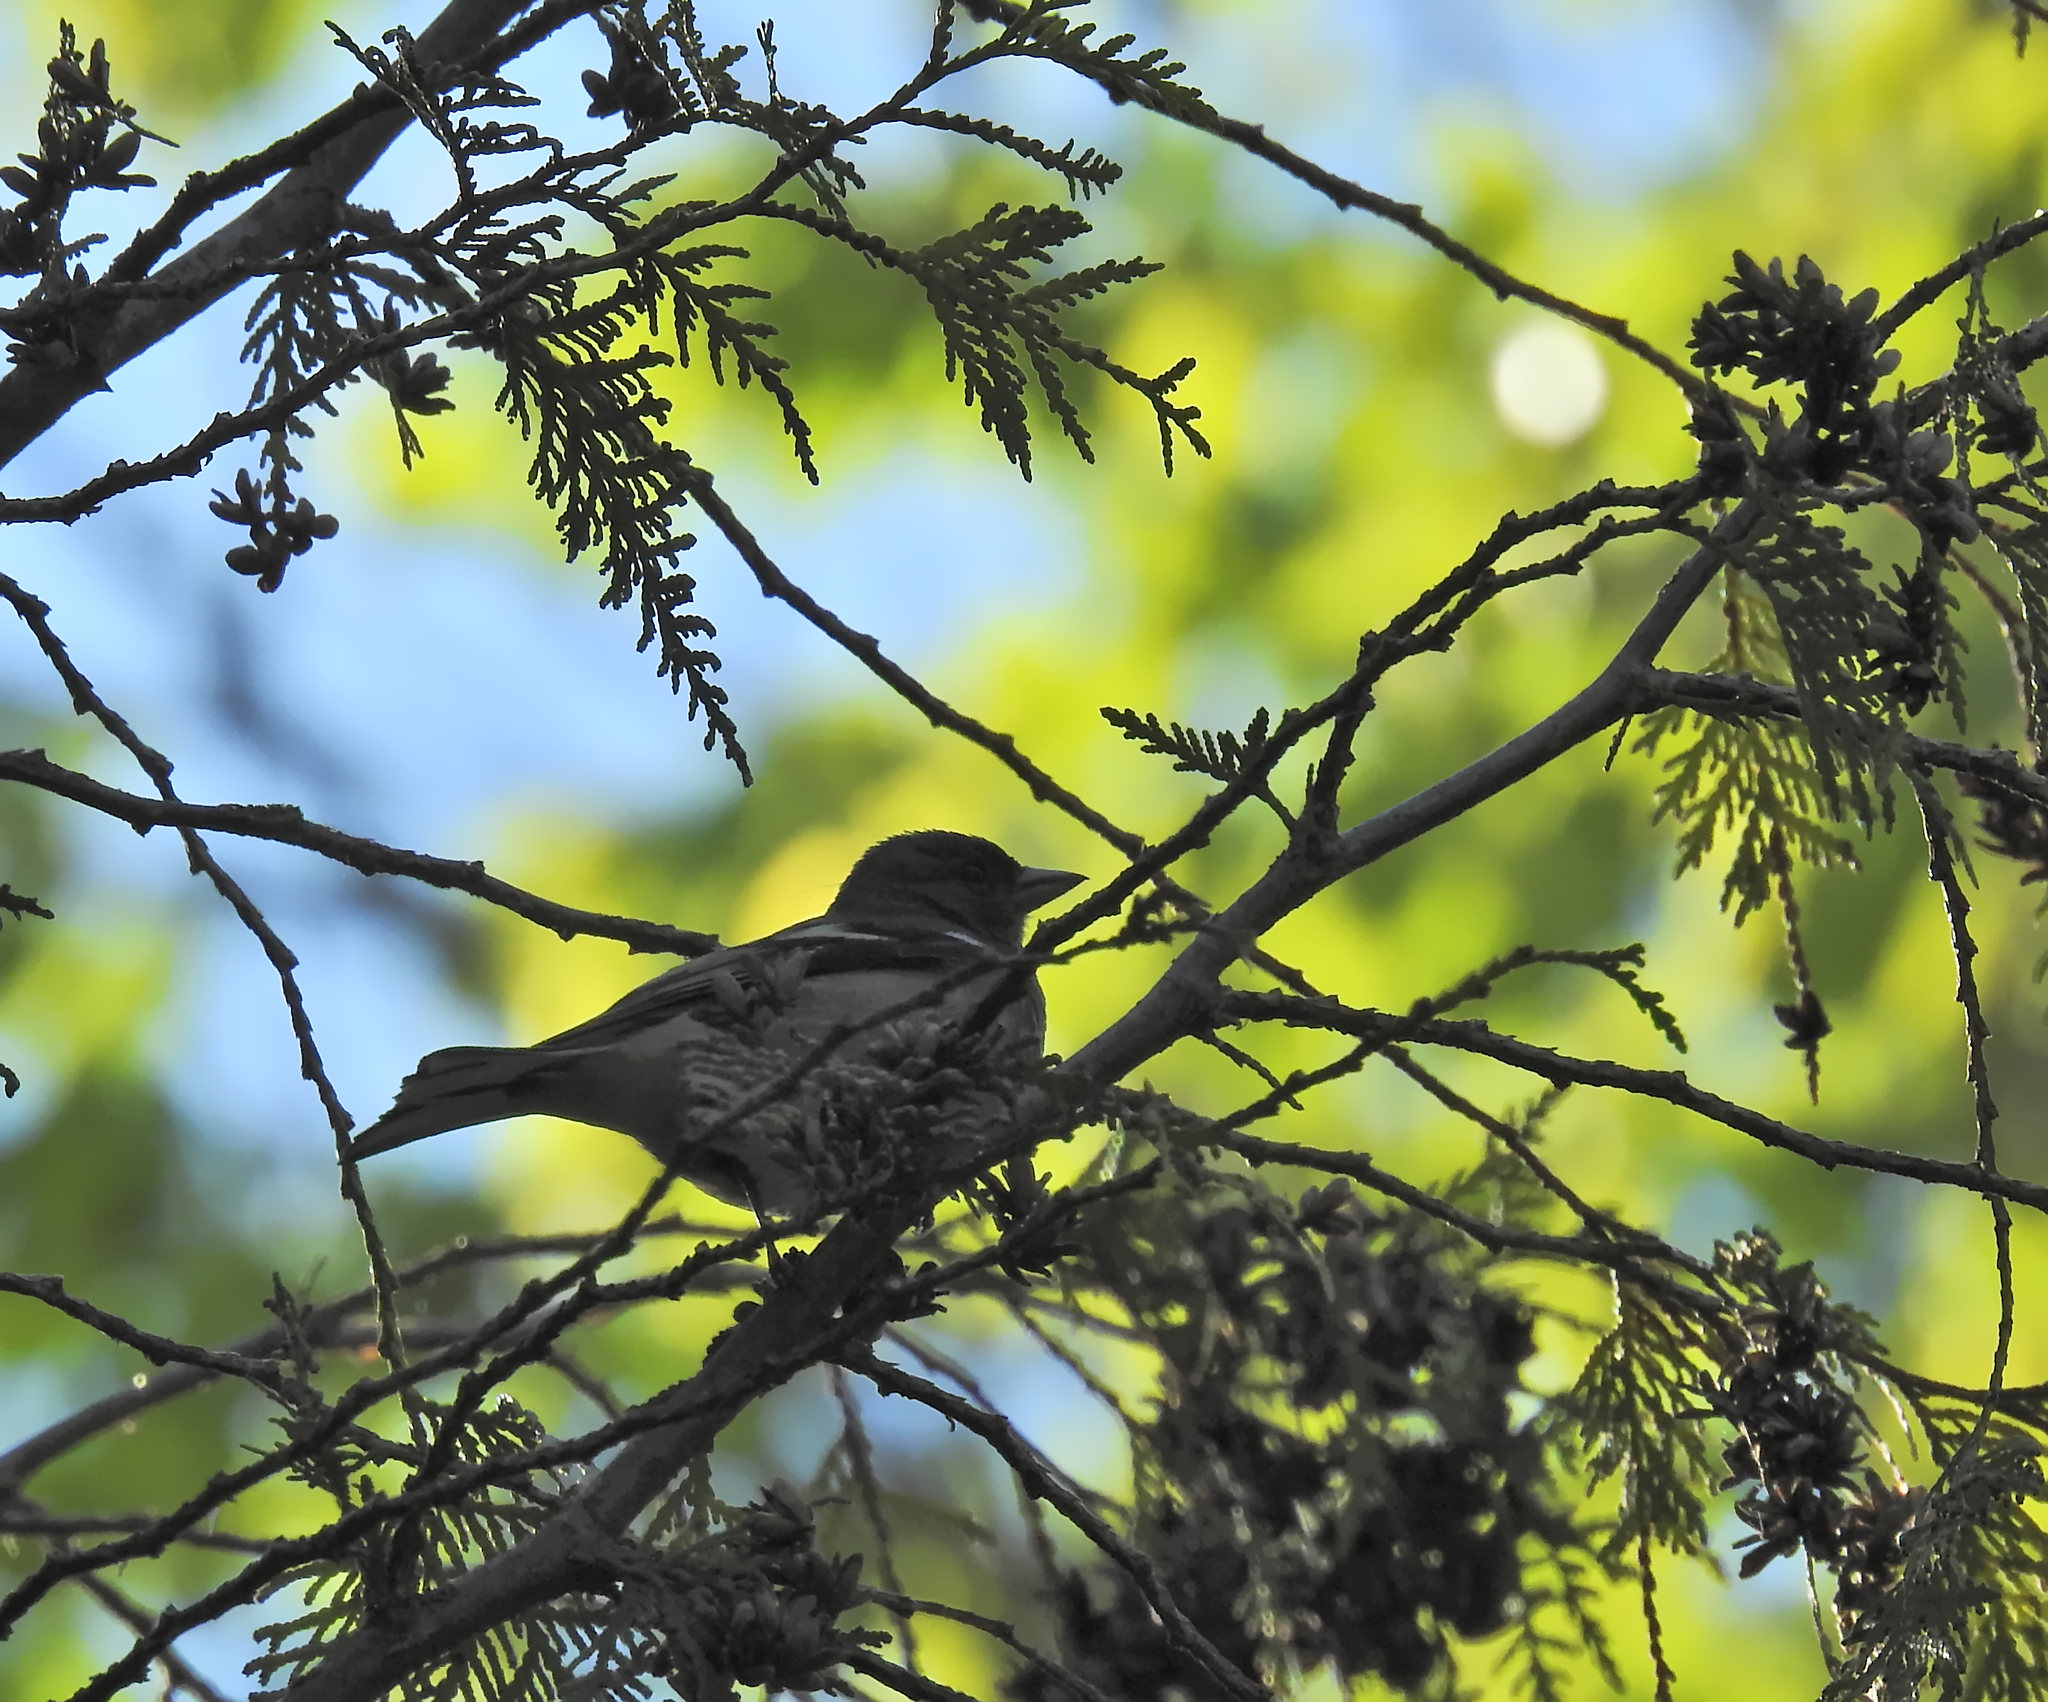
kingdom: Animalia
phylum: Chordata
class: Aves
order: Passeriformes
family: Fringillidae
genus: Fringilla
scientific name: Fringilla coelebs
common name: Common chaffinch
